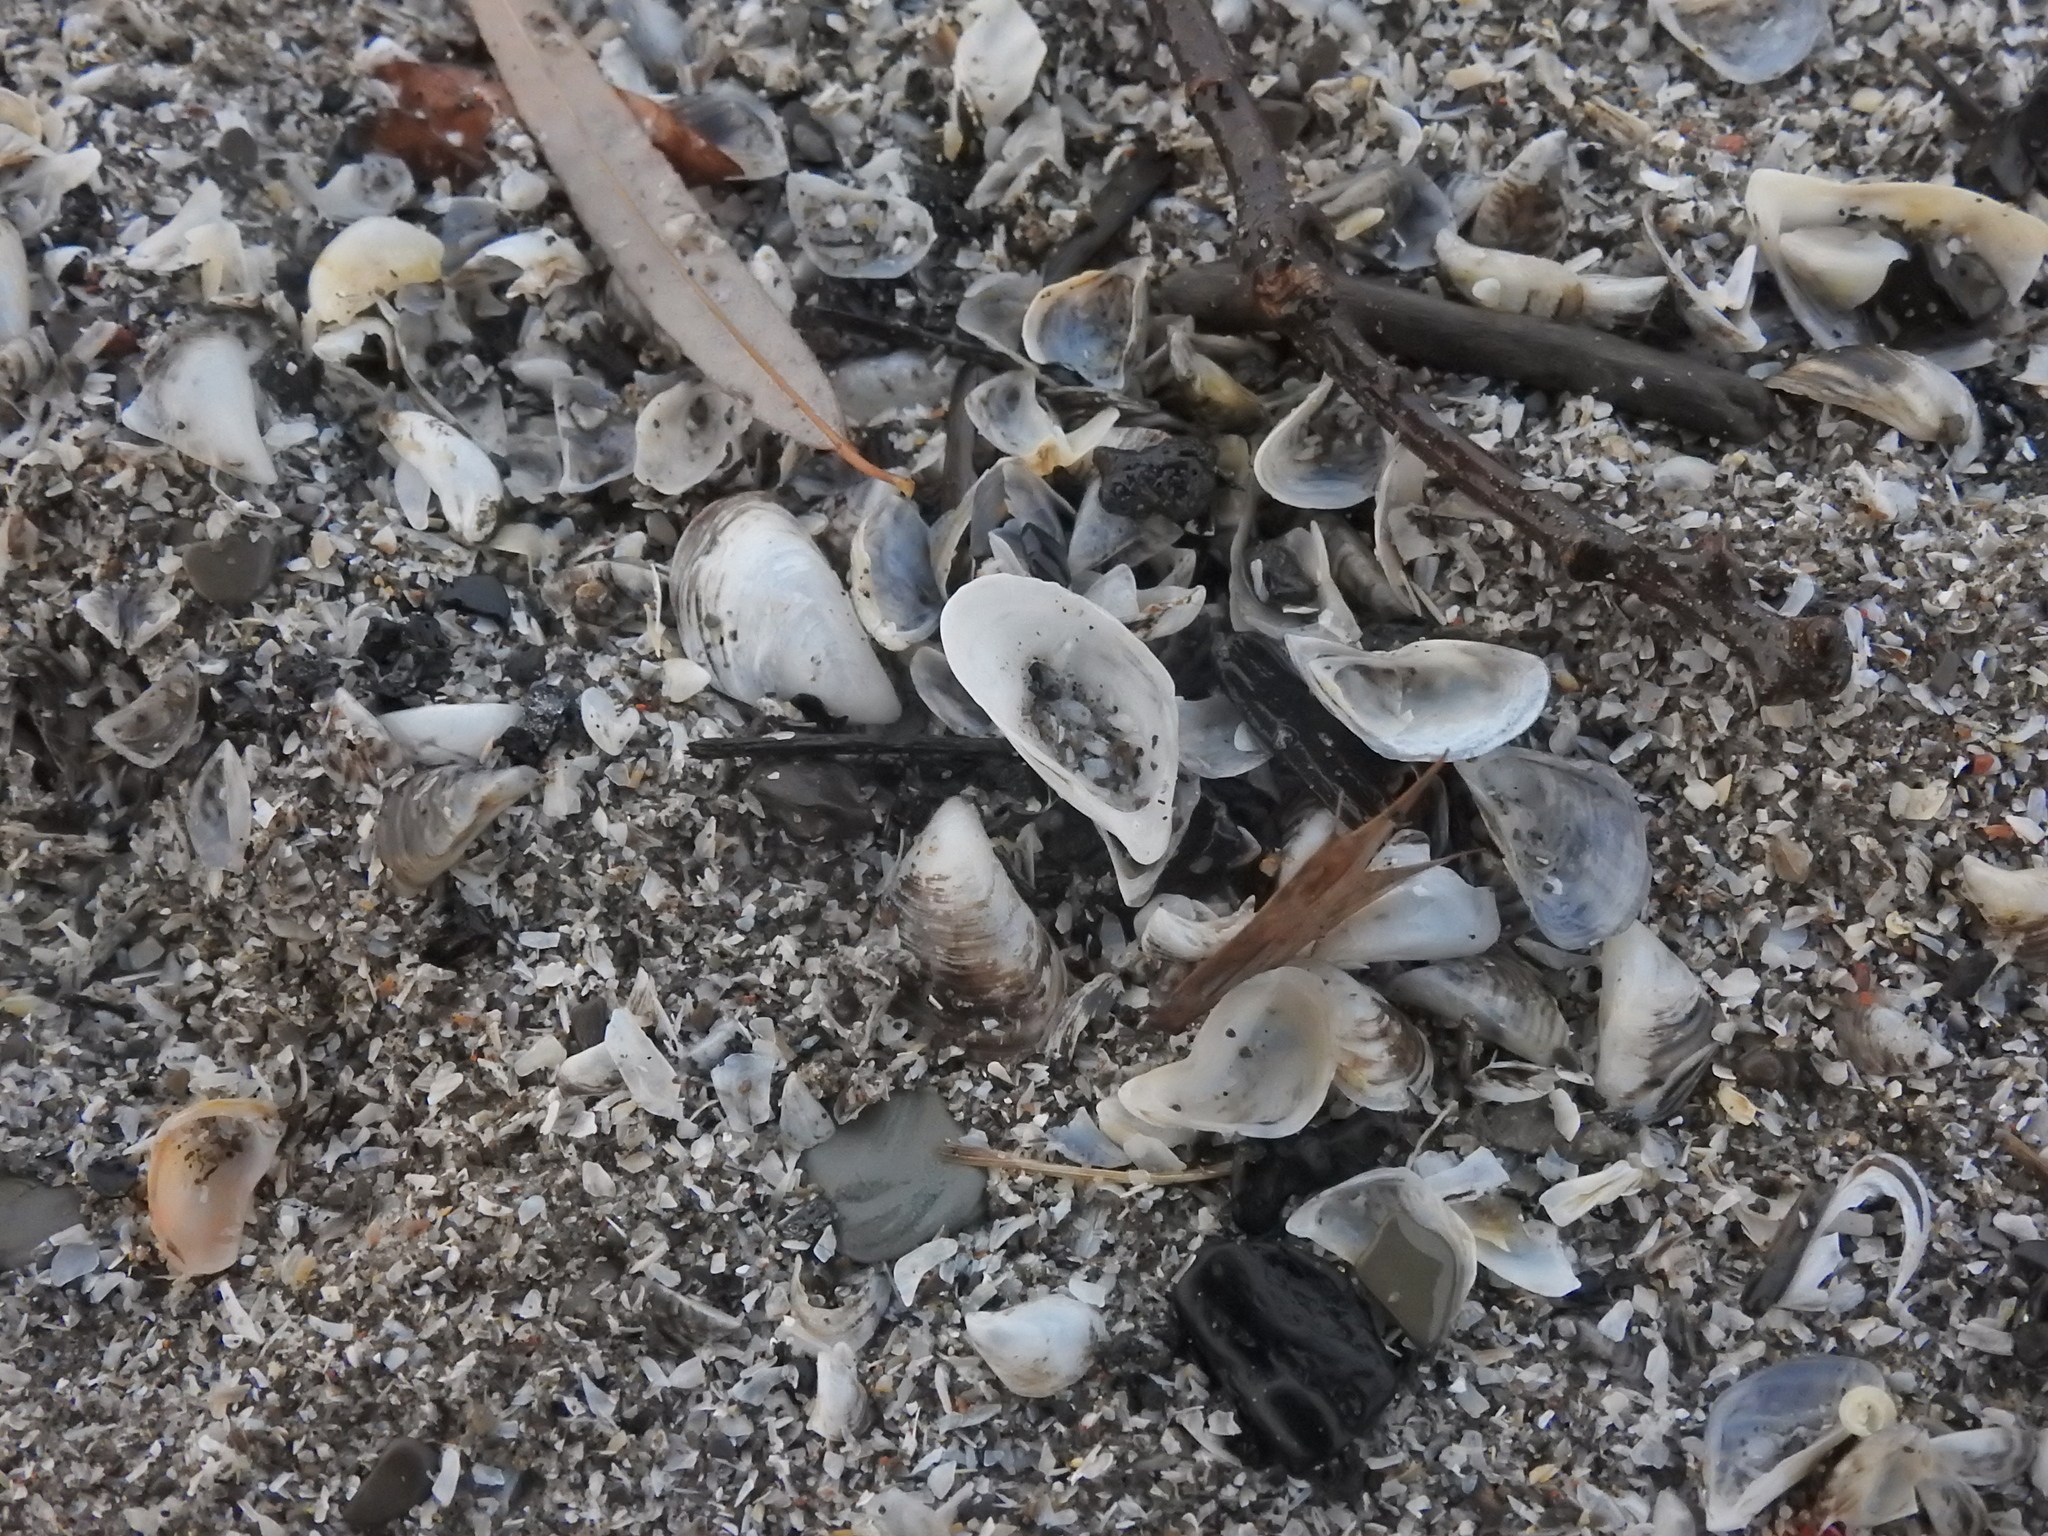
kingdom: Animalia
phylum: Mollusca
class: Bivalvia
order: Myida
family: Dreissenidae
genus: Dreissena
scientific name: Dreissena bugensis
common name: Quagga mussel
